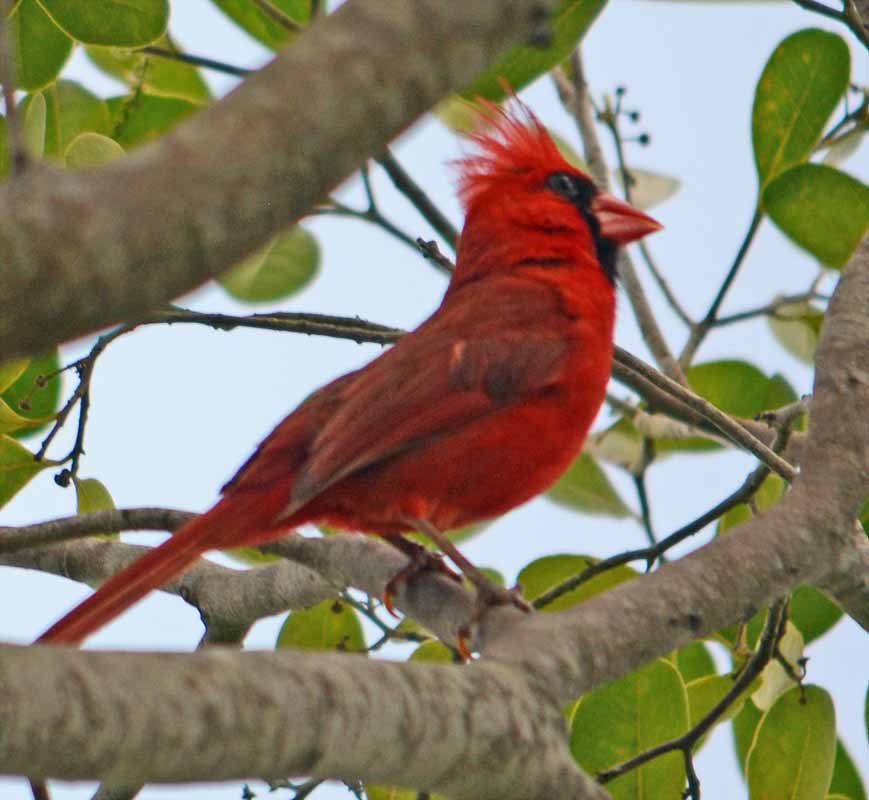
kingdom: Animalia
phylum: Chordata
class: Aves
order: Passeriformes
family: Cardinalidae
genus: Cardinalis
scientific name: Cardinalis cardinalis
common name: Northern cardinal
